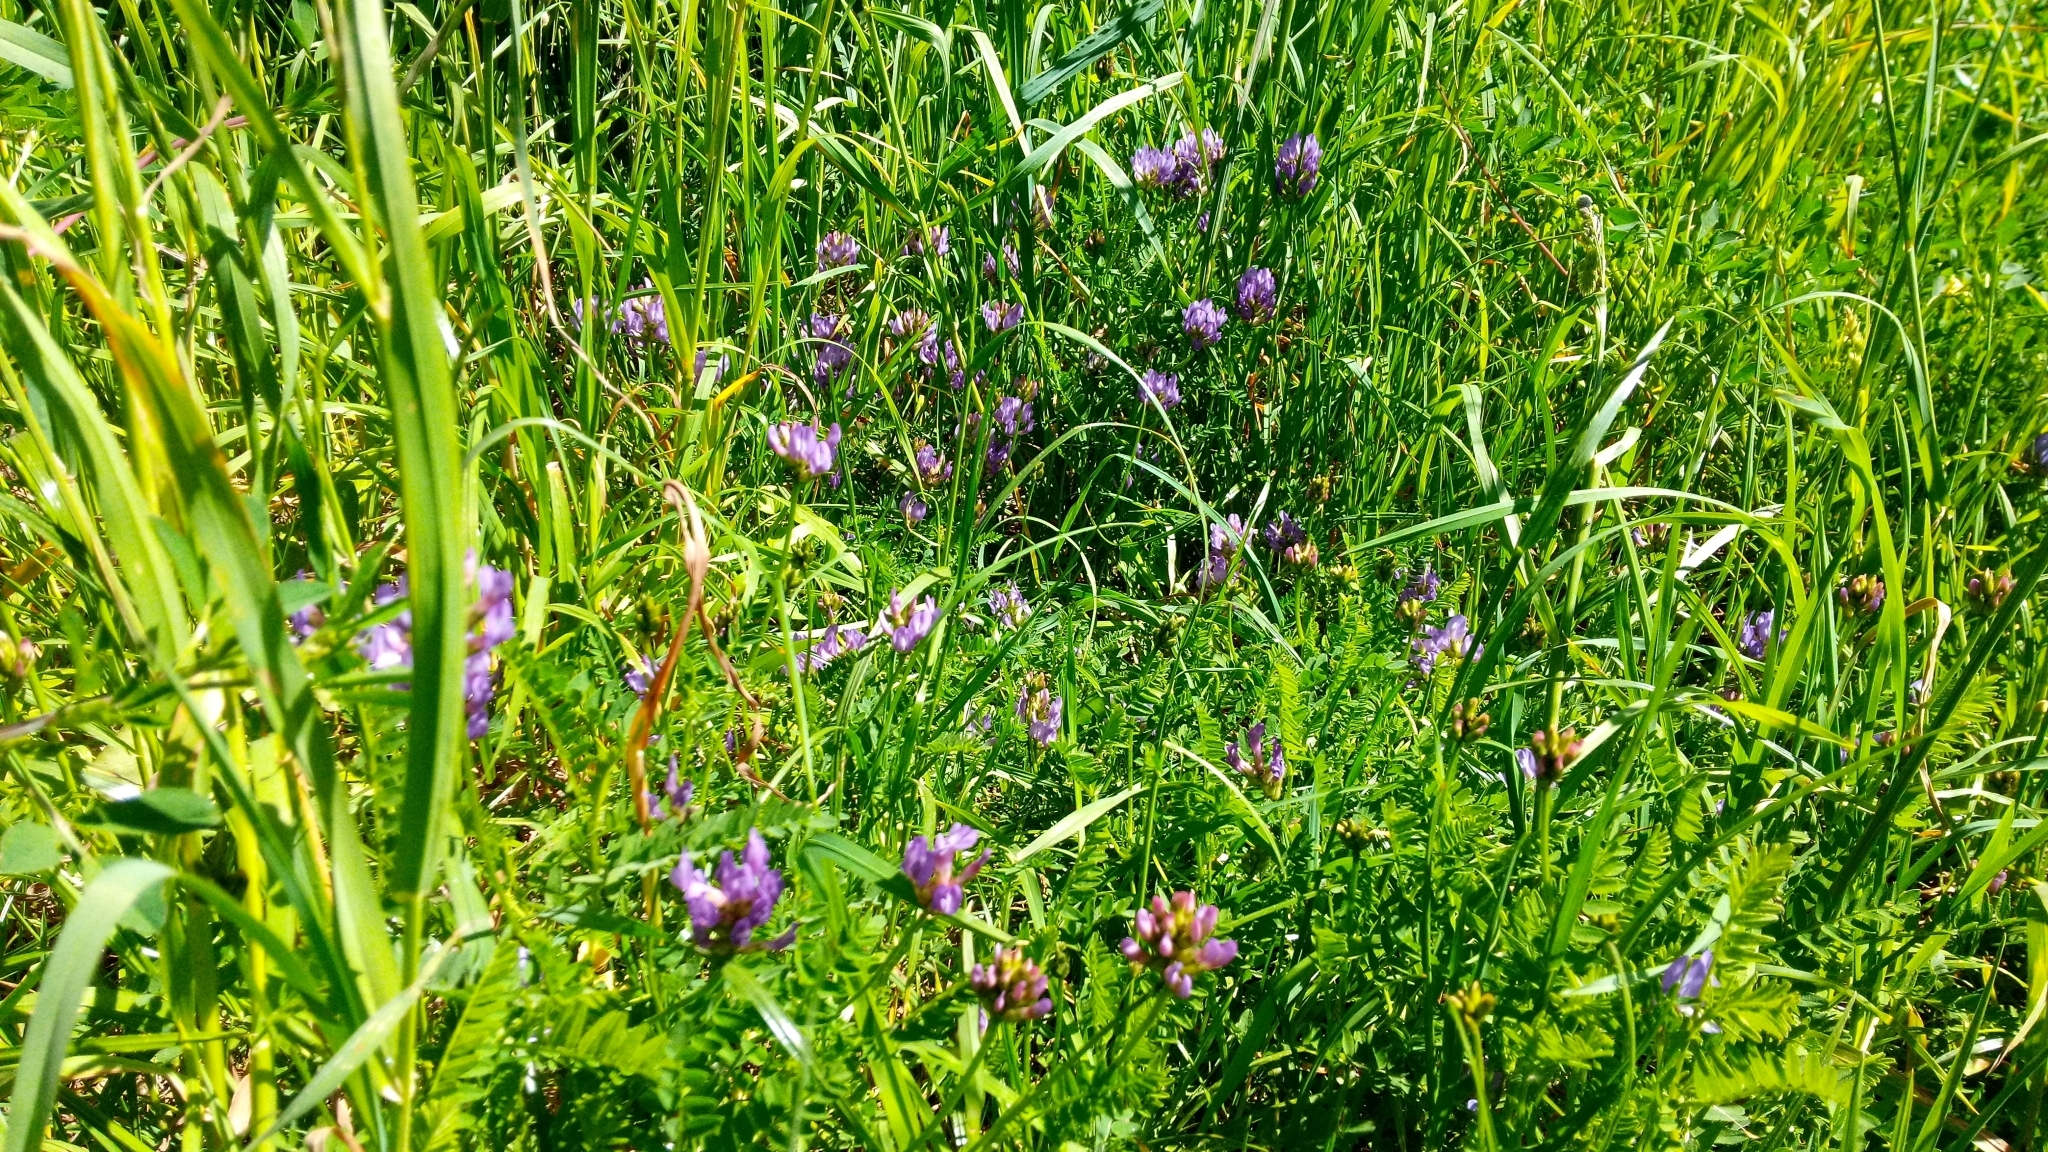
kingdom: Plantae
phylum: Tracheophyta
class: Magnoliopsida
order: Fabales
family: Fabaceae
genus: Astragalus
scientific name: Astragalus danicus
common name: Purple milk-vetch
